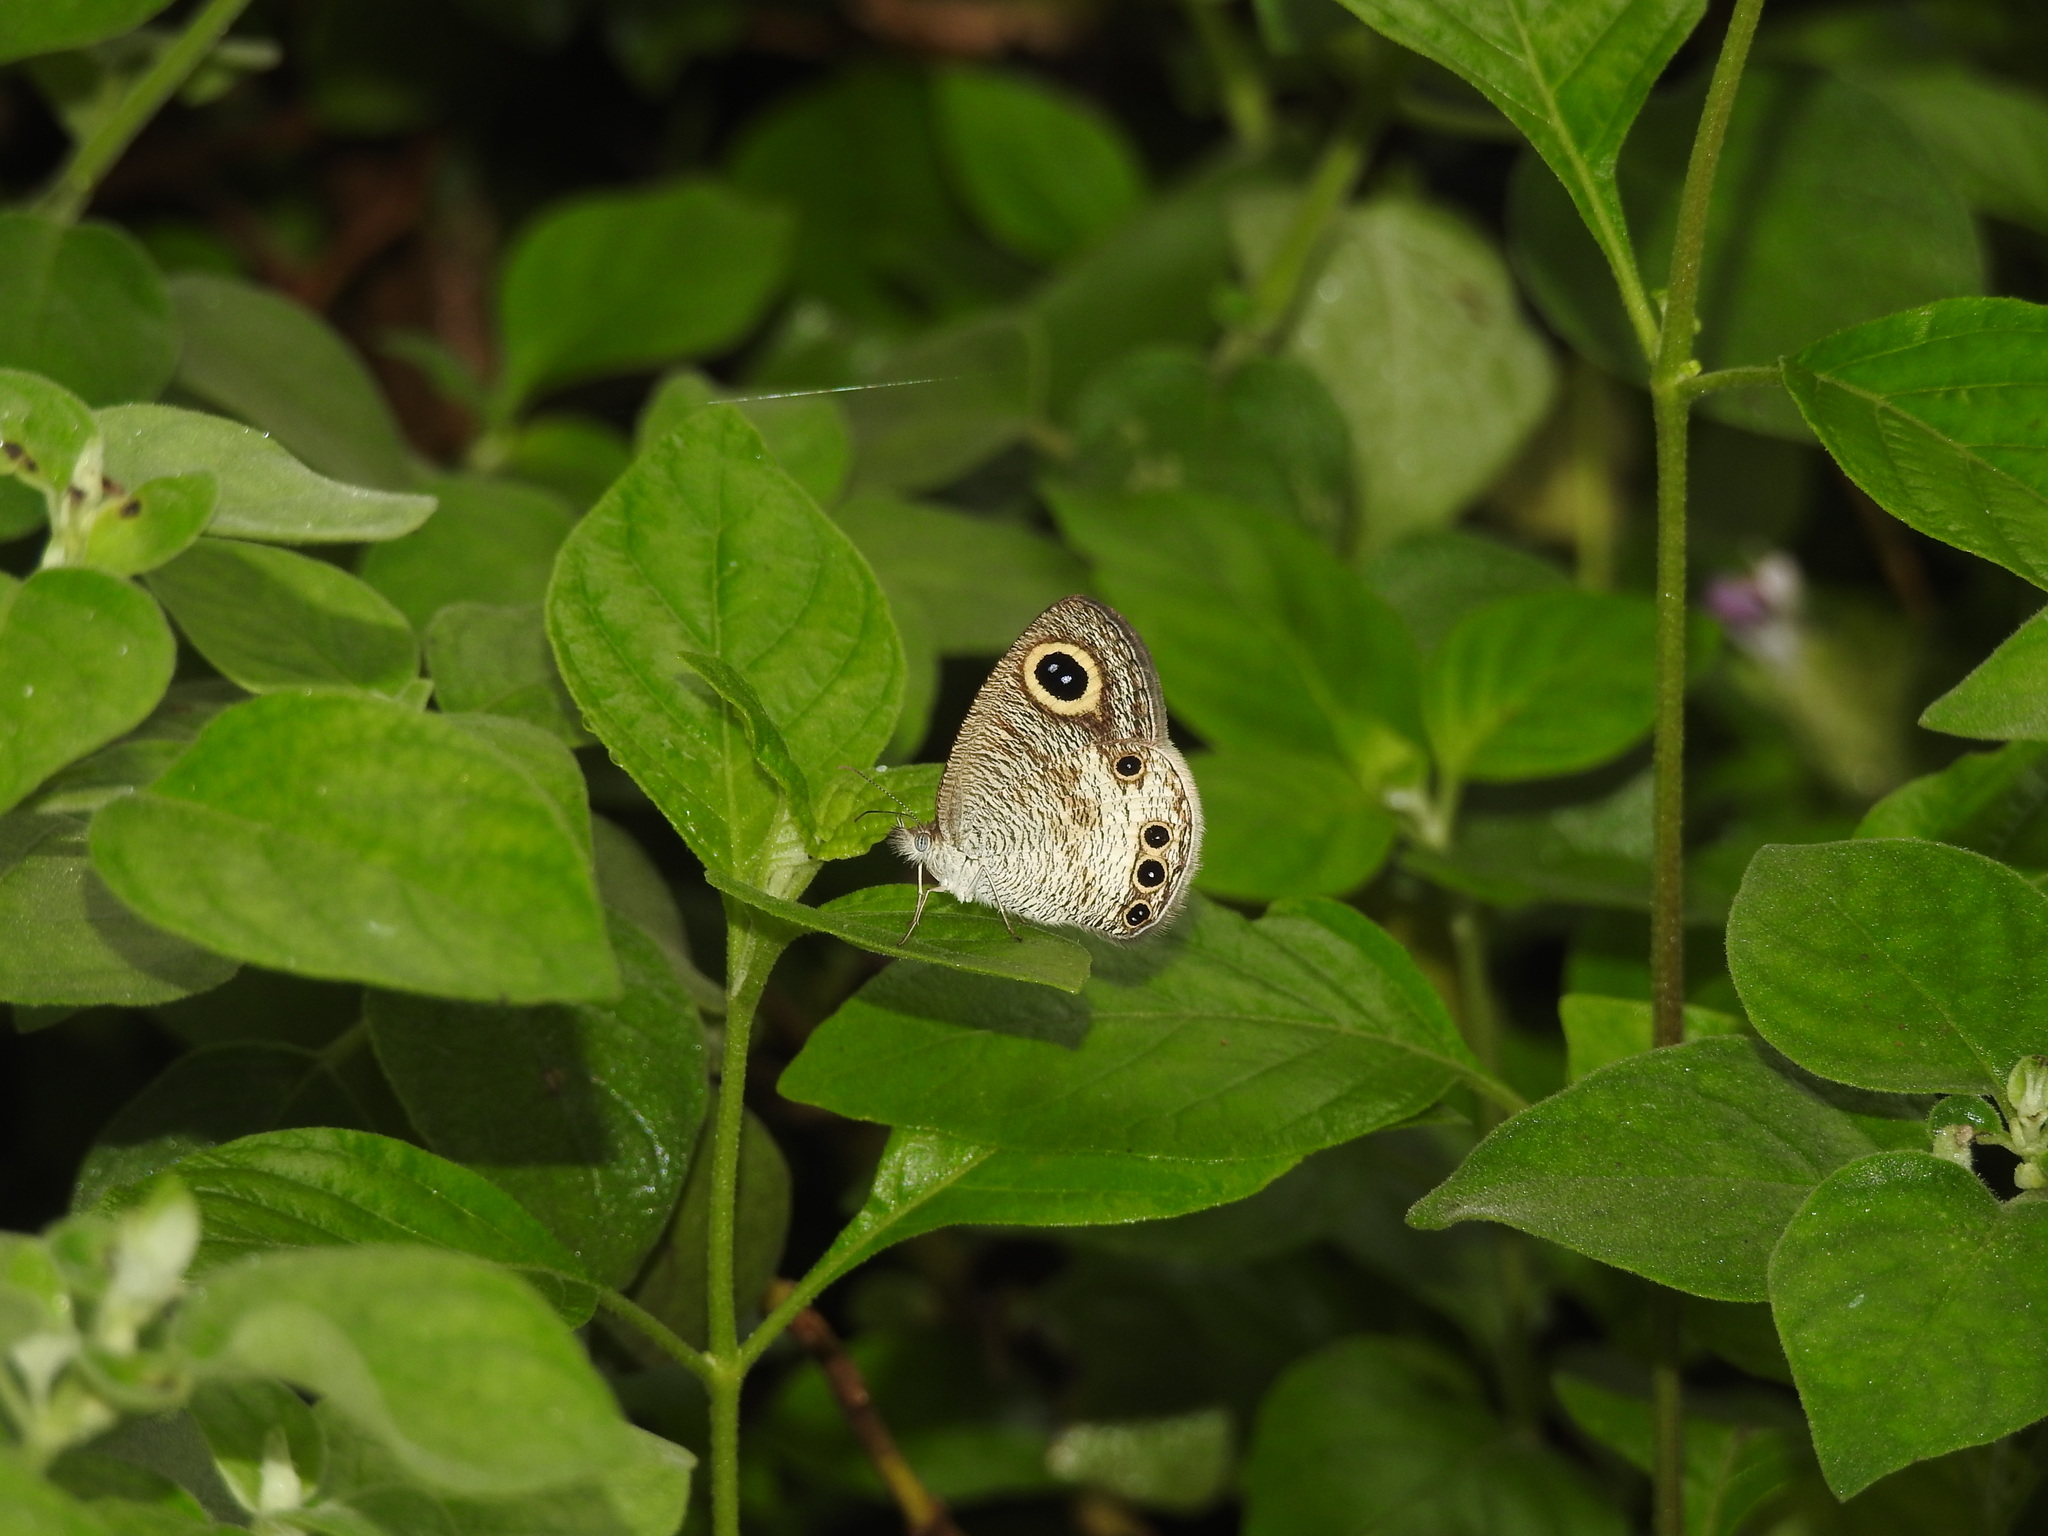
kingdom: Animalia
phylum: Arthropoda
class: Insecta
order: Lepidoptera
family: Nymphalidae
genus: Ypthima
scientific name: Ypthima huebneri
